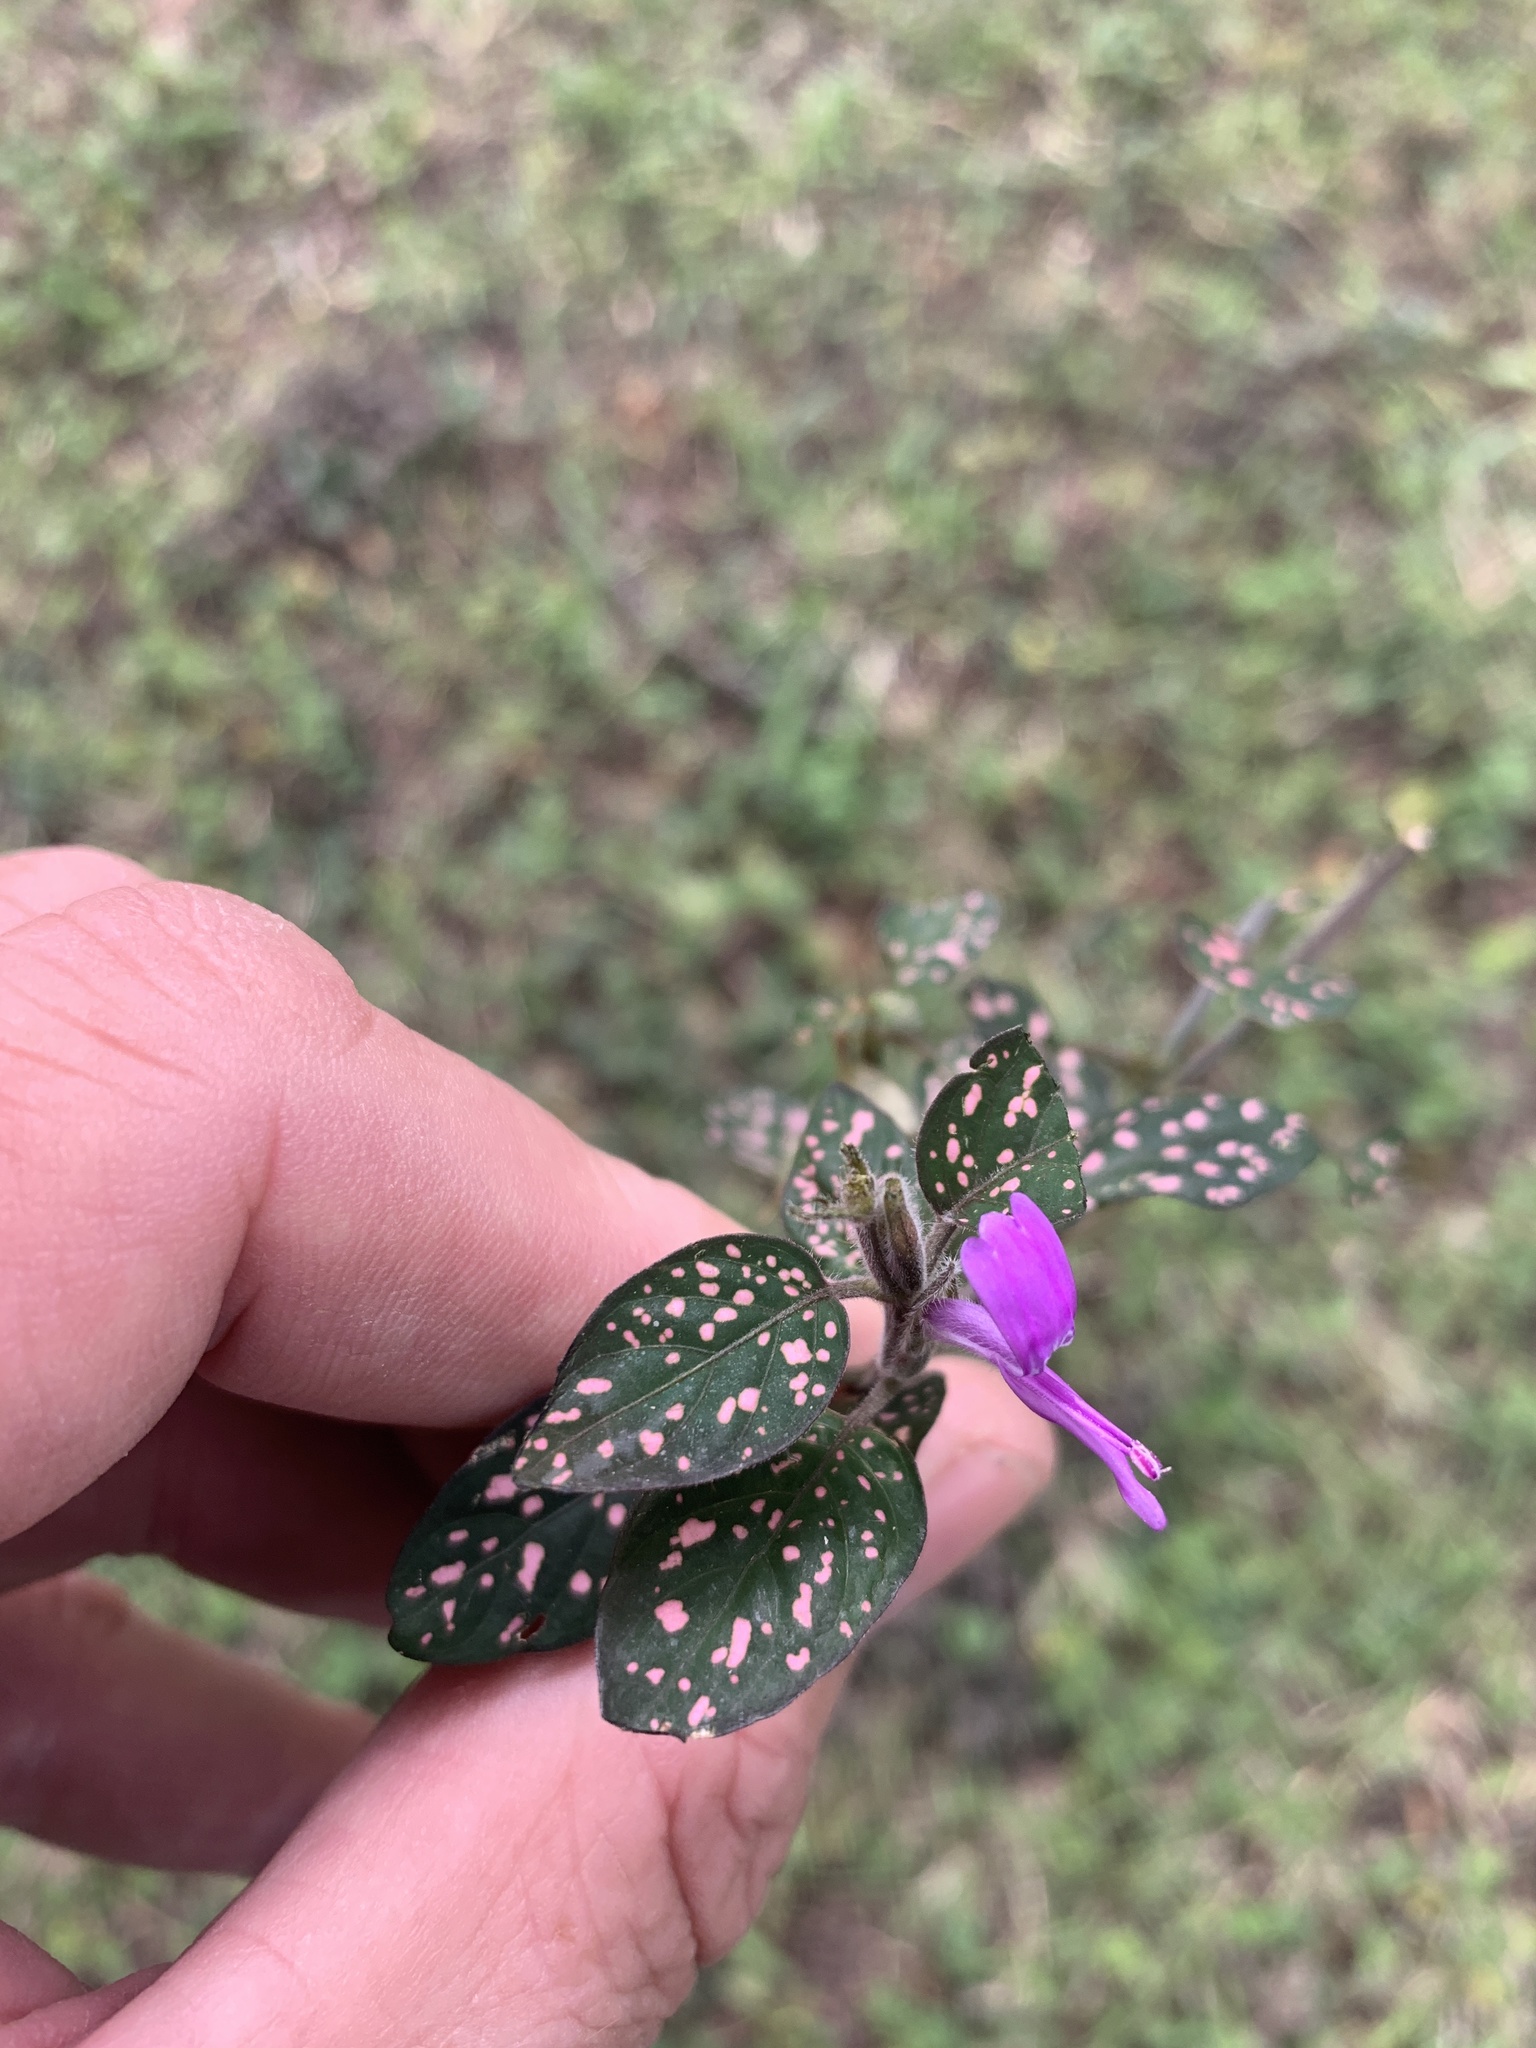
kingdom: Plantae
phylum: Tracheophyta
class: Magnoliopsida
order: Lamiales
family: Acanthaceae
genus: Hypoestes
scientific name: Hypoestes phyllostachya
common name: Polkadot-plant
